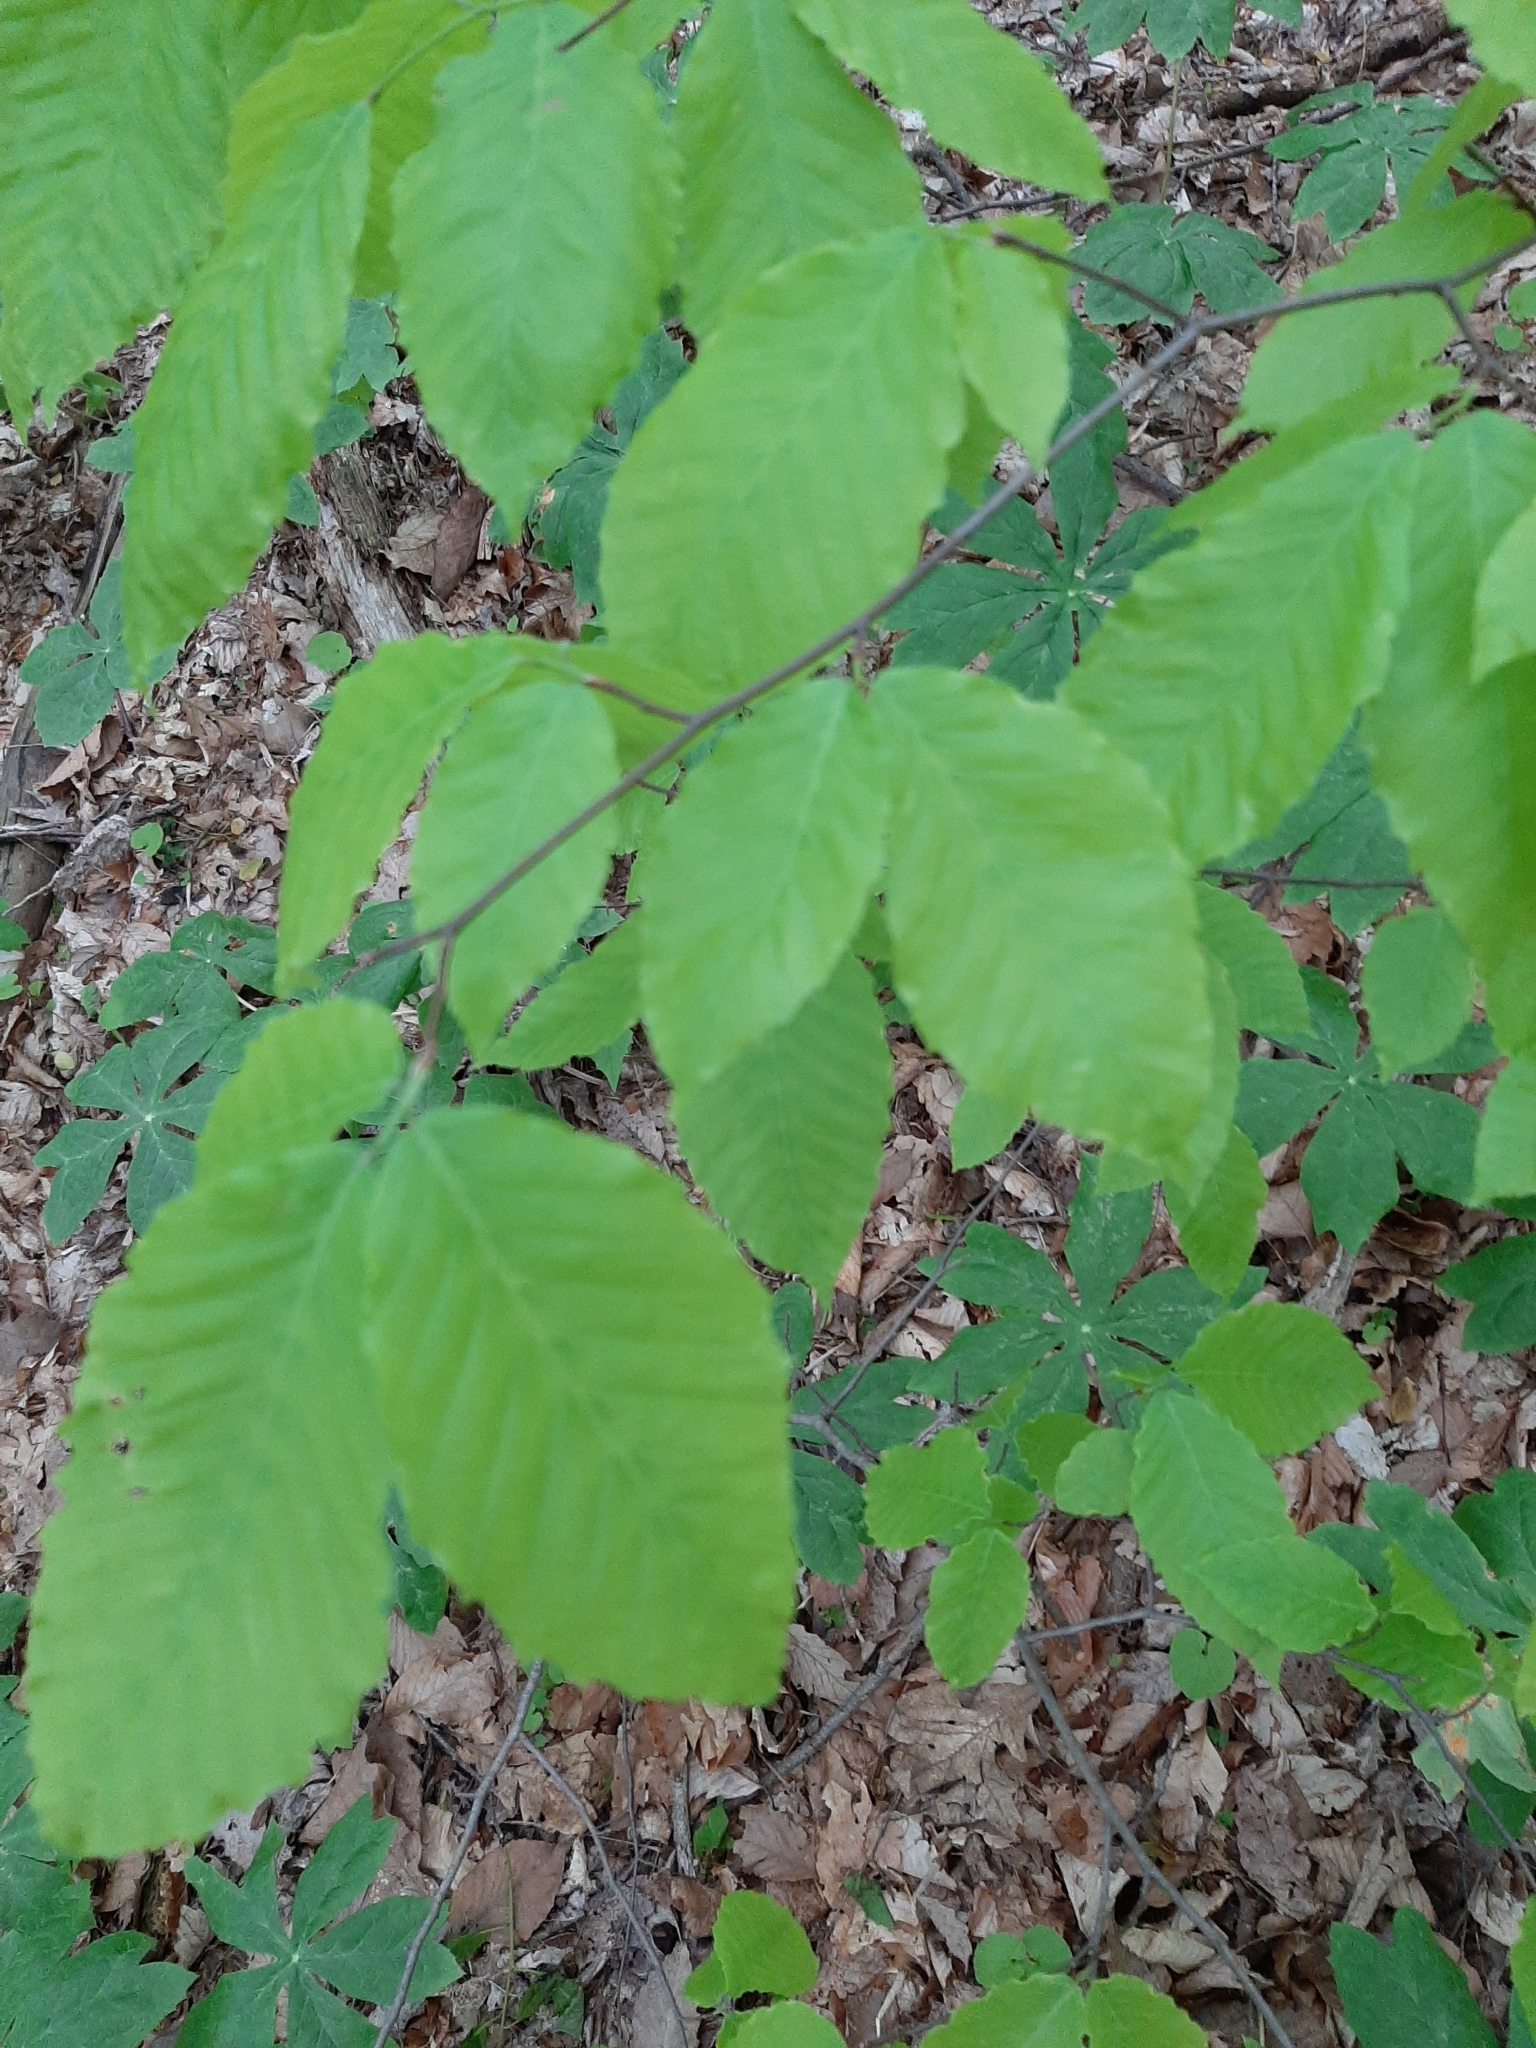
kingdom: Plantae
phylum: Tracheophyta
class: Magnoliopsida
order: Fagales
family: Fagaceae
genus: Fagus
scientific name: Fagus grandifolia
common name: American beech
